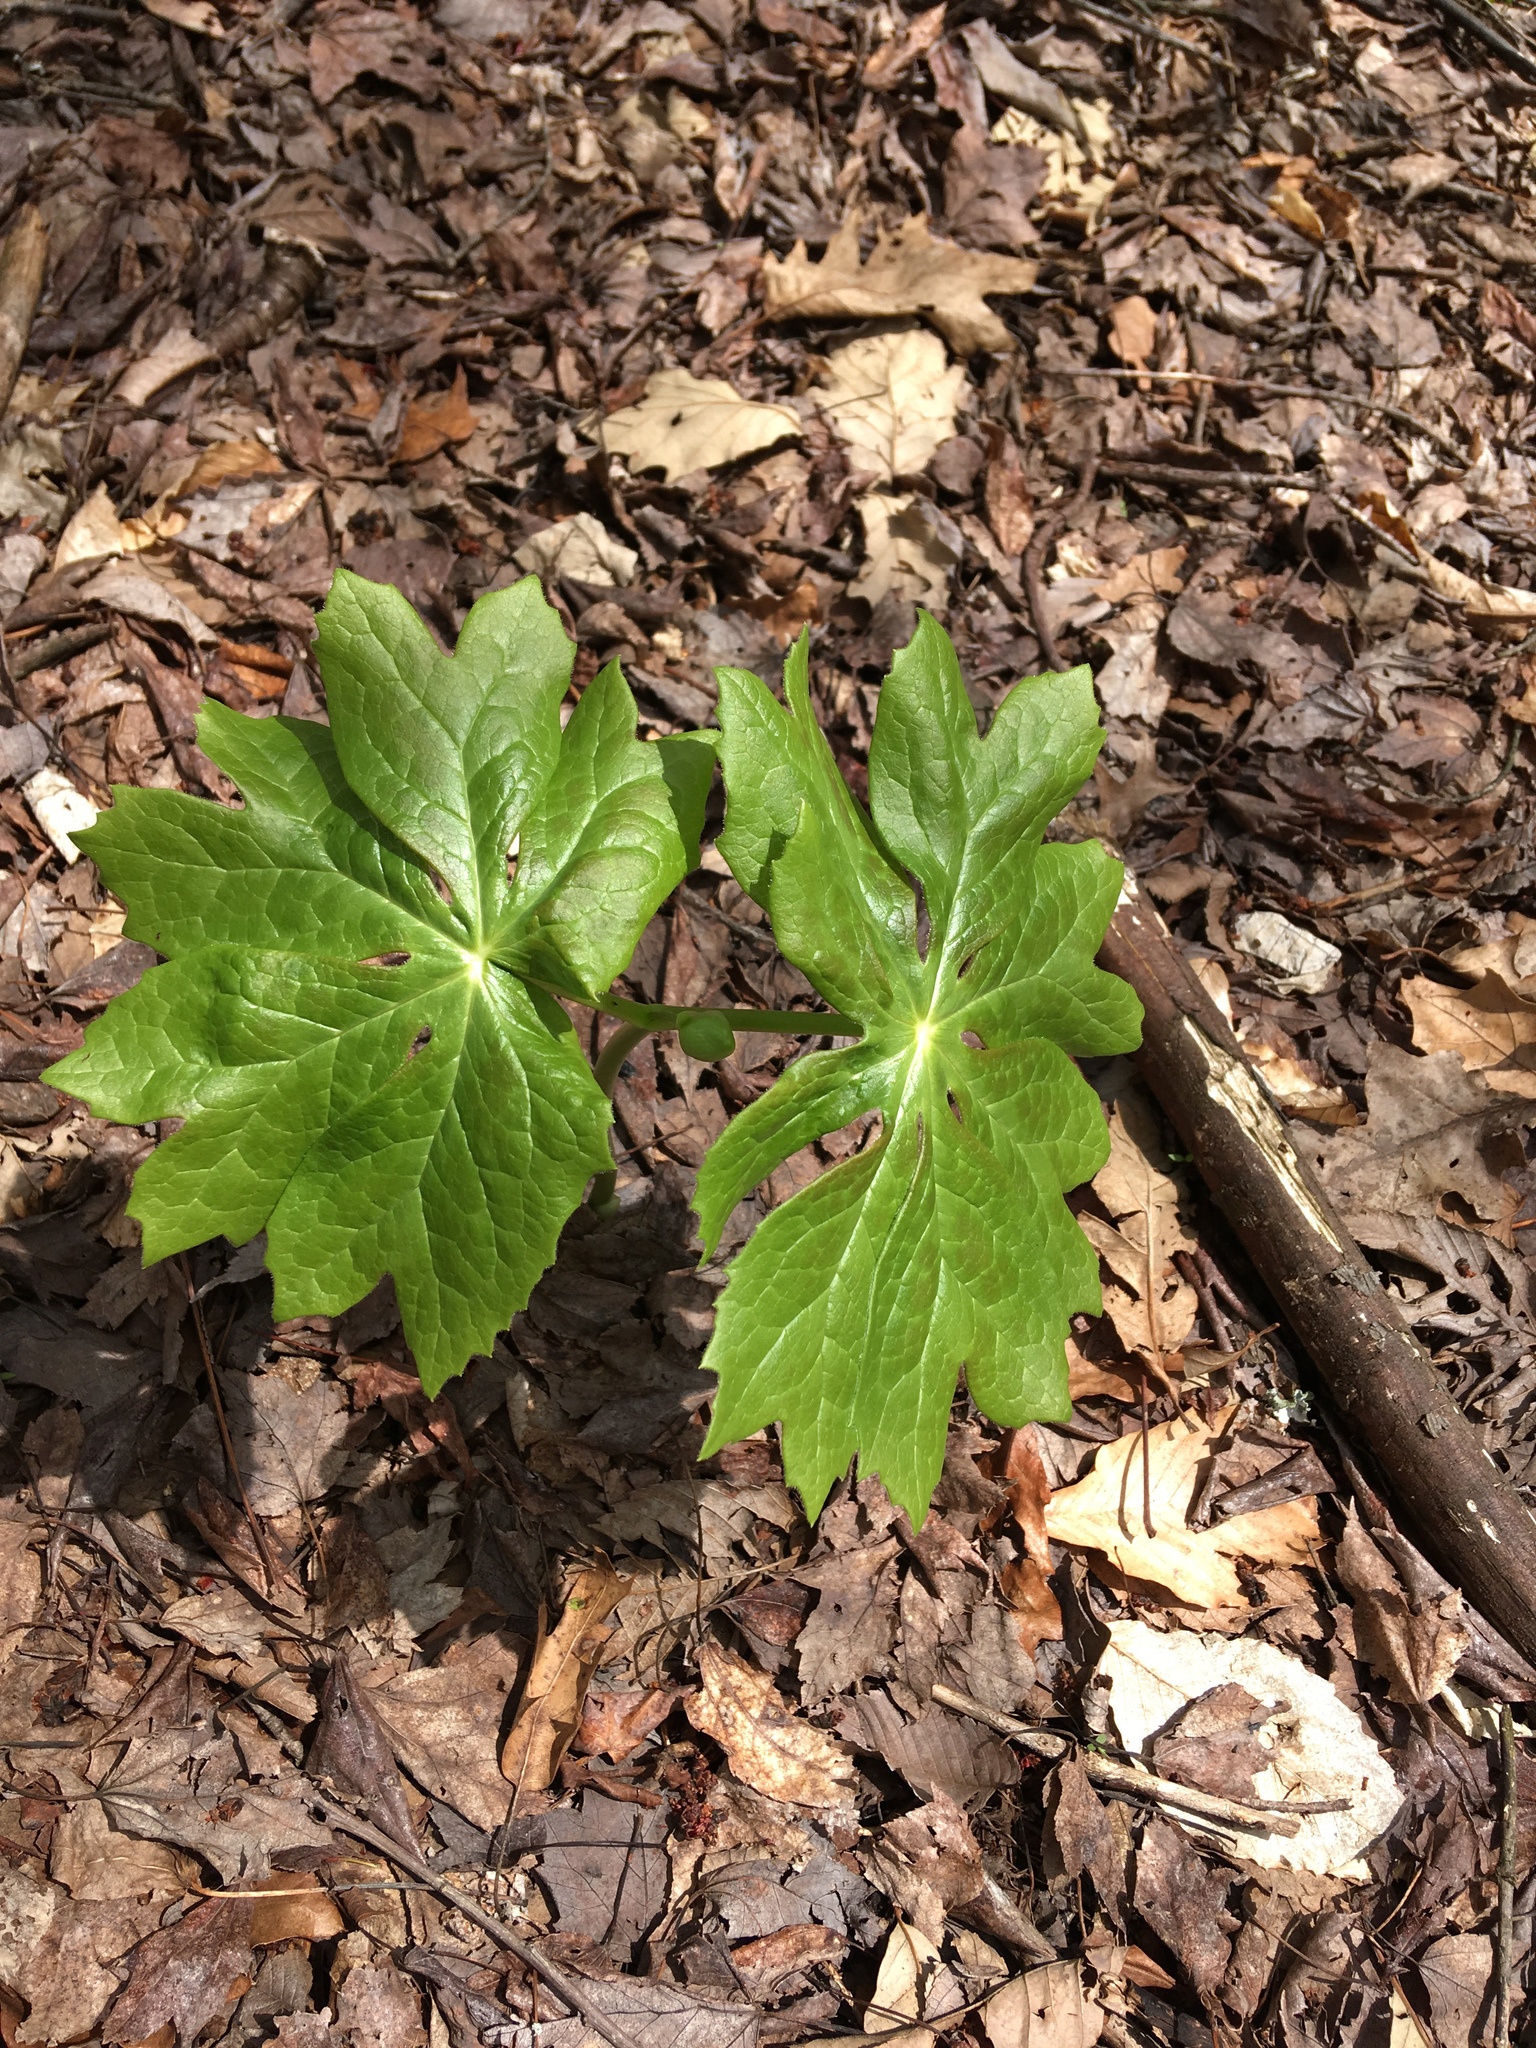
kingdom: Plantae
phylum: Tracheophyta
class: Magnoliopsida
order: Ranunculales
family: Berberidaceae
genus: Podophyllum
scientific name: Podophyllum peltatum
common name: Wild mandrake
